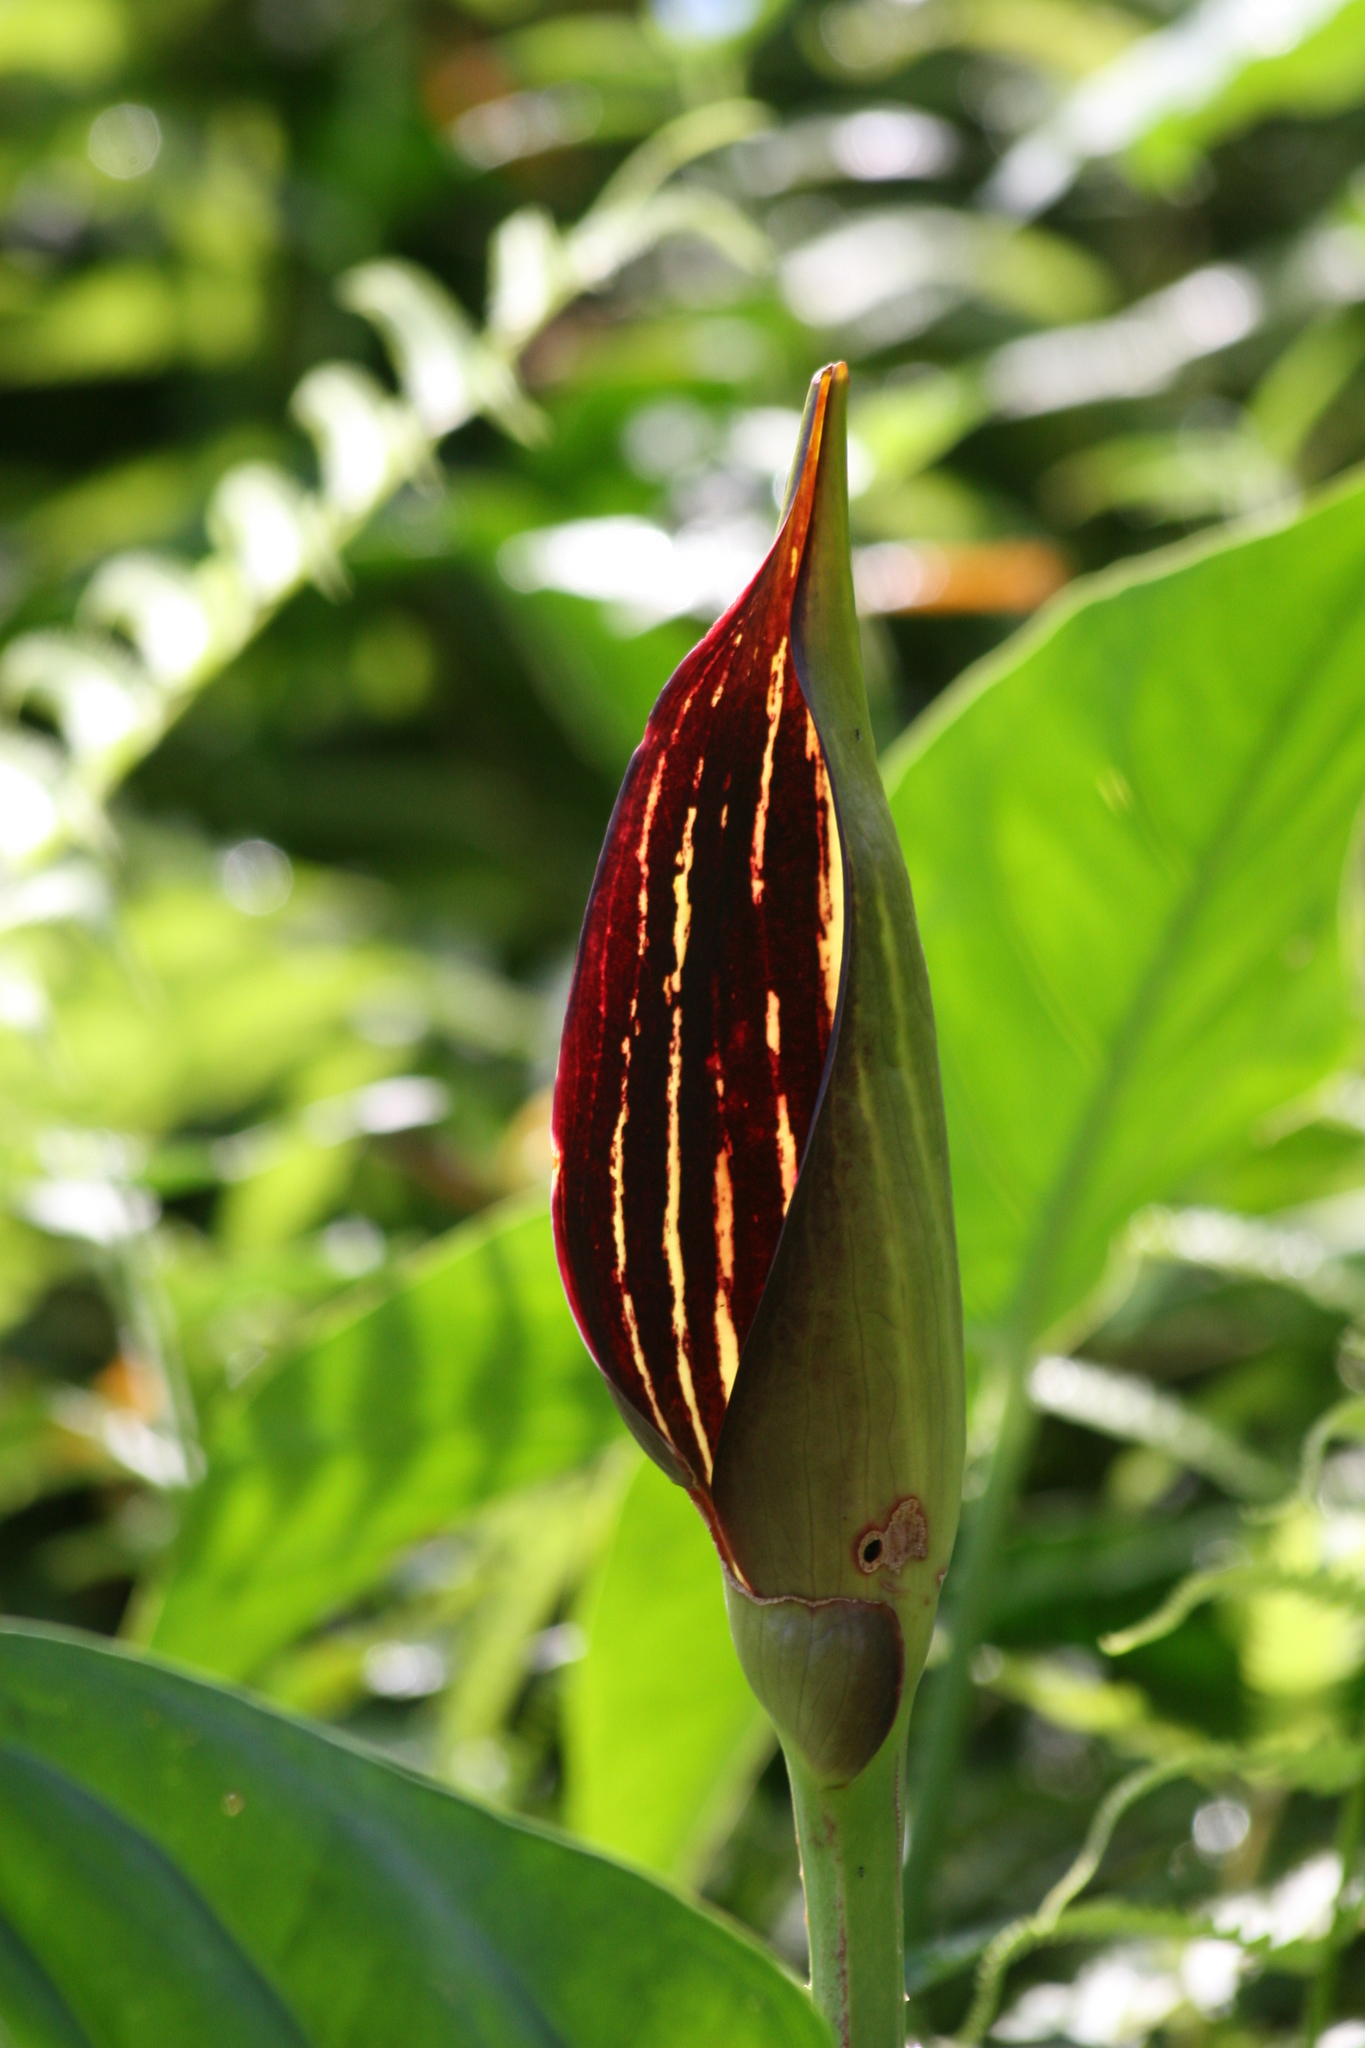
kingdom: Plantae
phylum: Tracheophyta
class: Liliopsida
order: Alismatales
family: Araceae
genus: Lasimorpha
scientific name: Lasimorpha senegalensis
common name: Swamp arum
